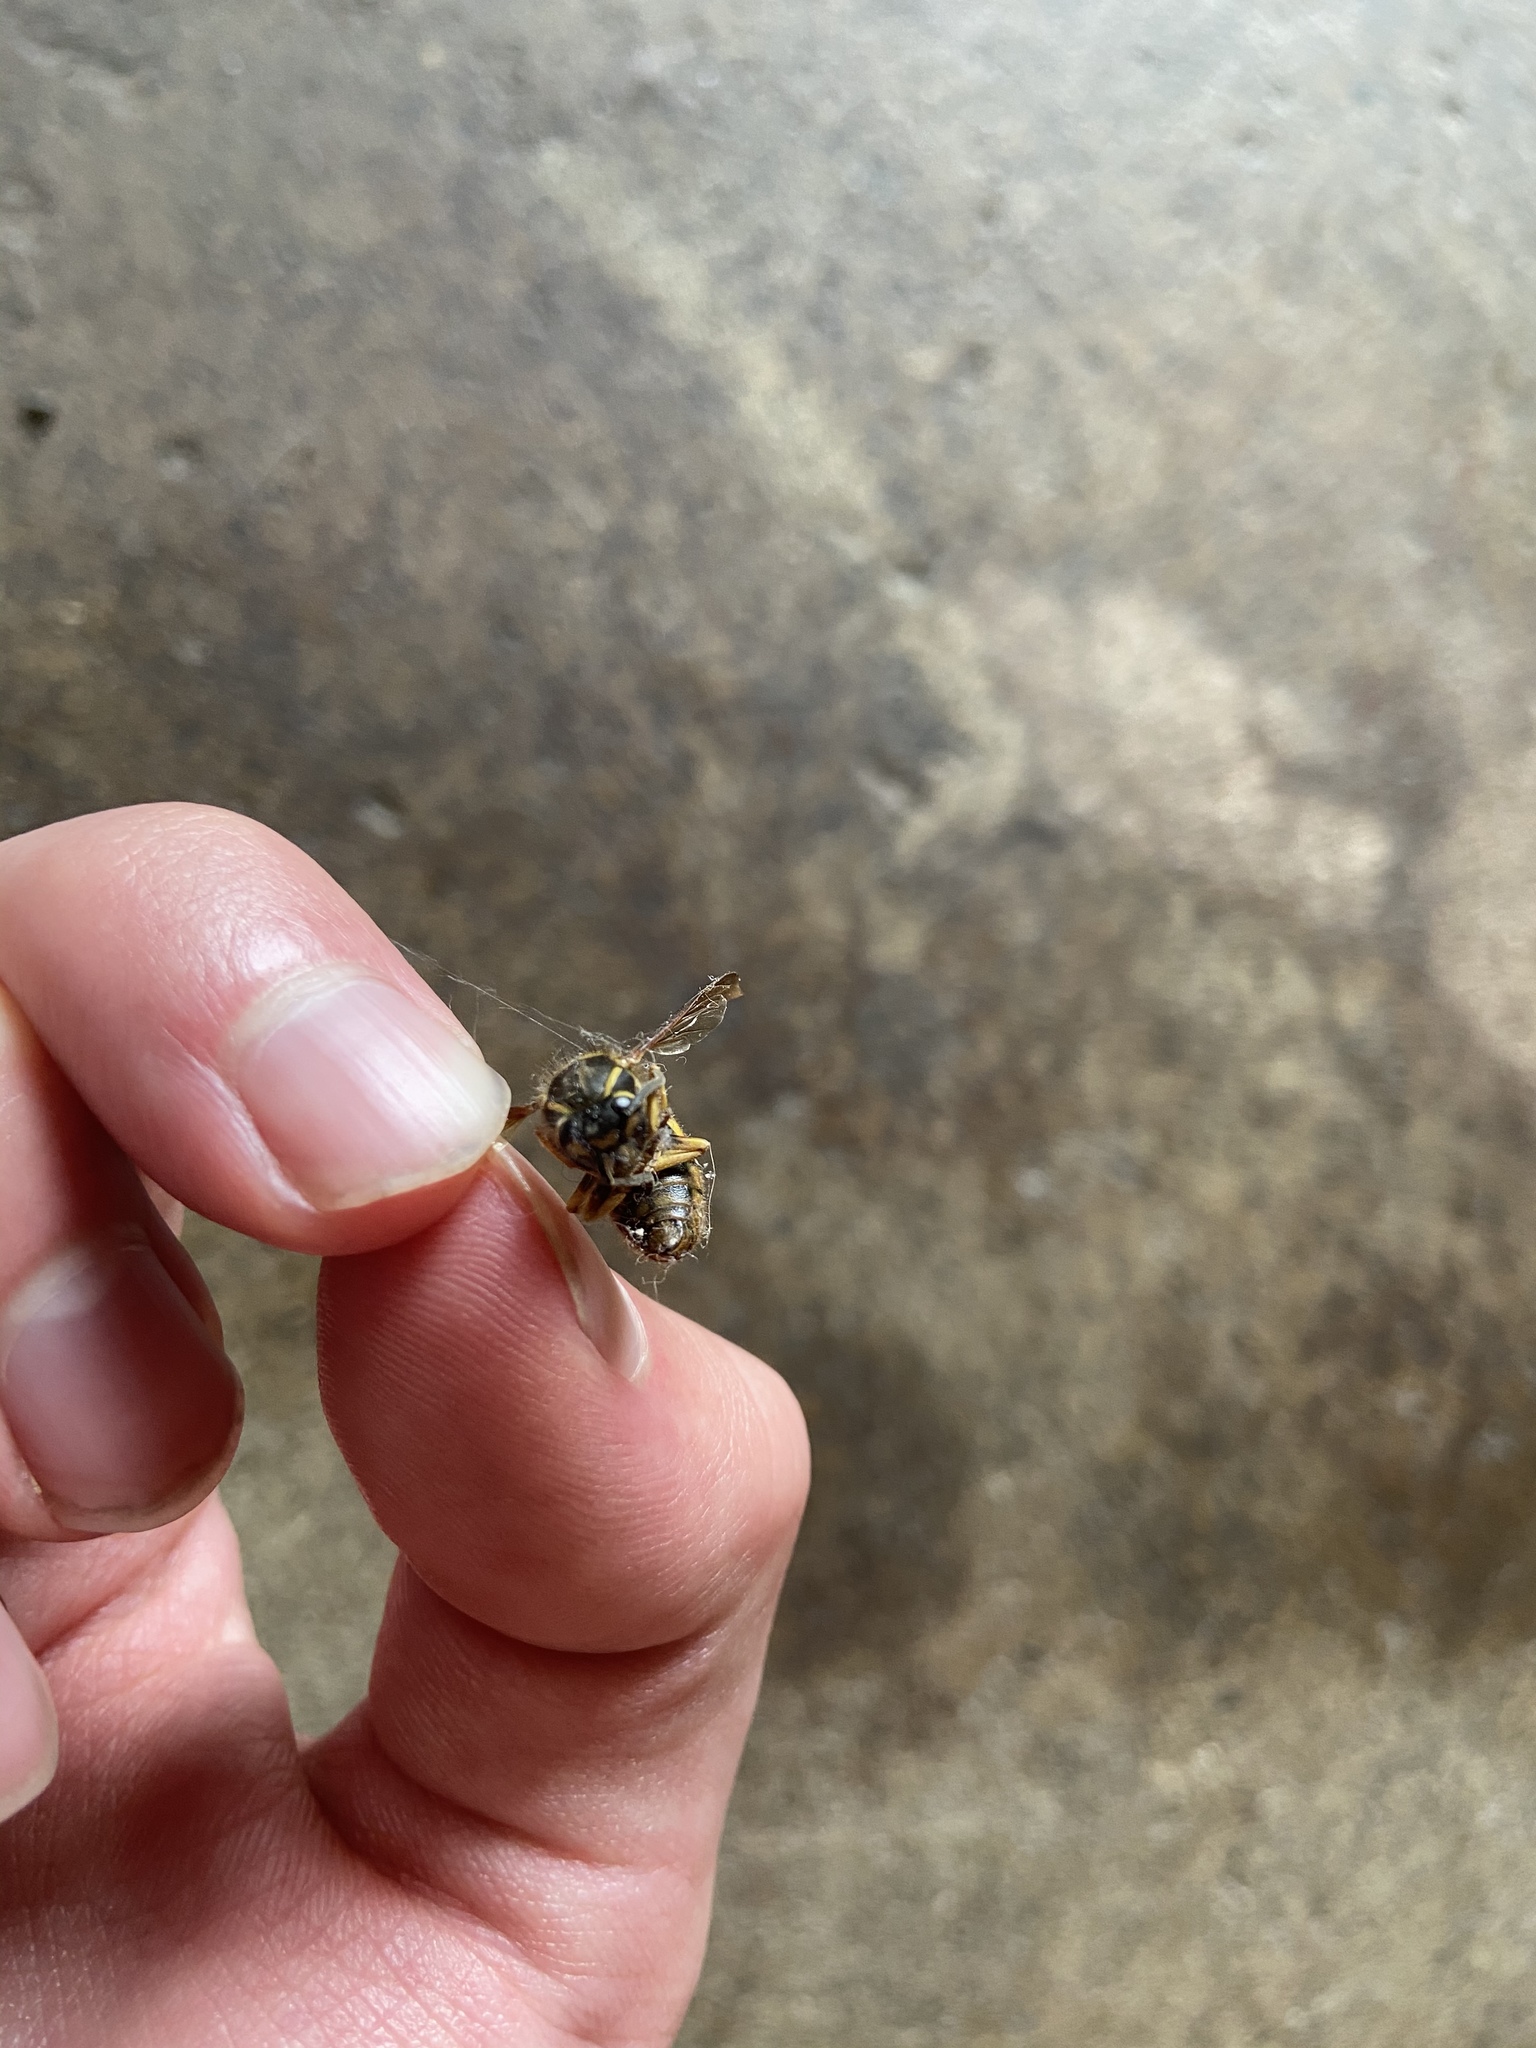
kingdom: Animalia
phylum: Arthropoda
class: Insecta
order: Hymenoptera
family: Vespidae
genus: Vespula
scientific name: Vespula alascensis
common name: Alaska yellowjacket
